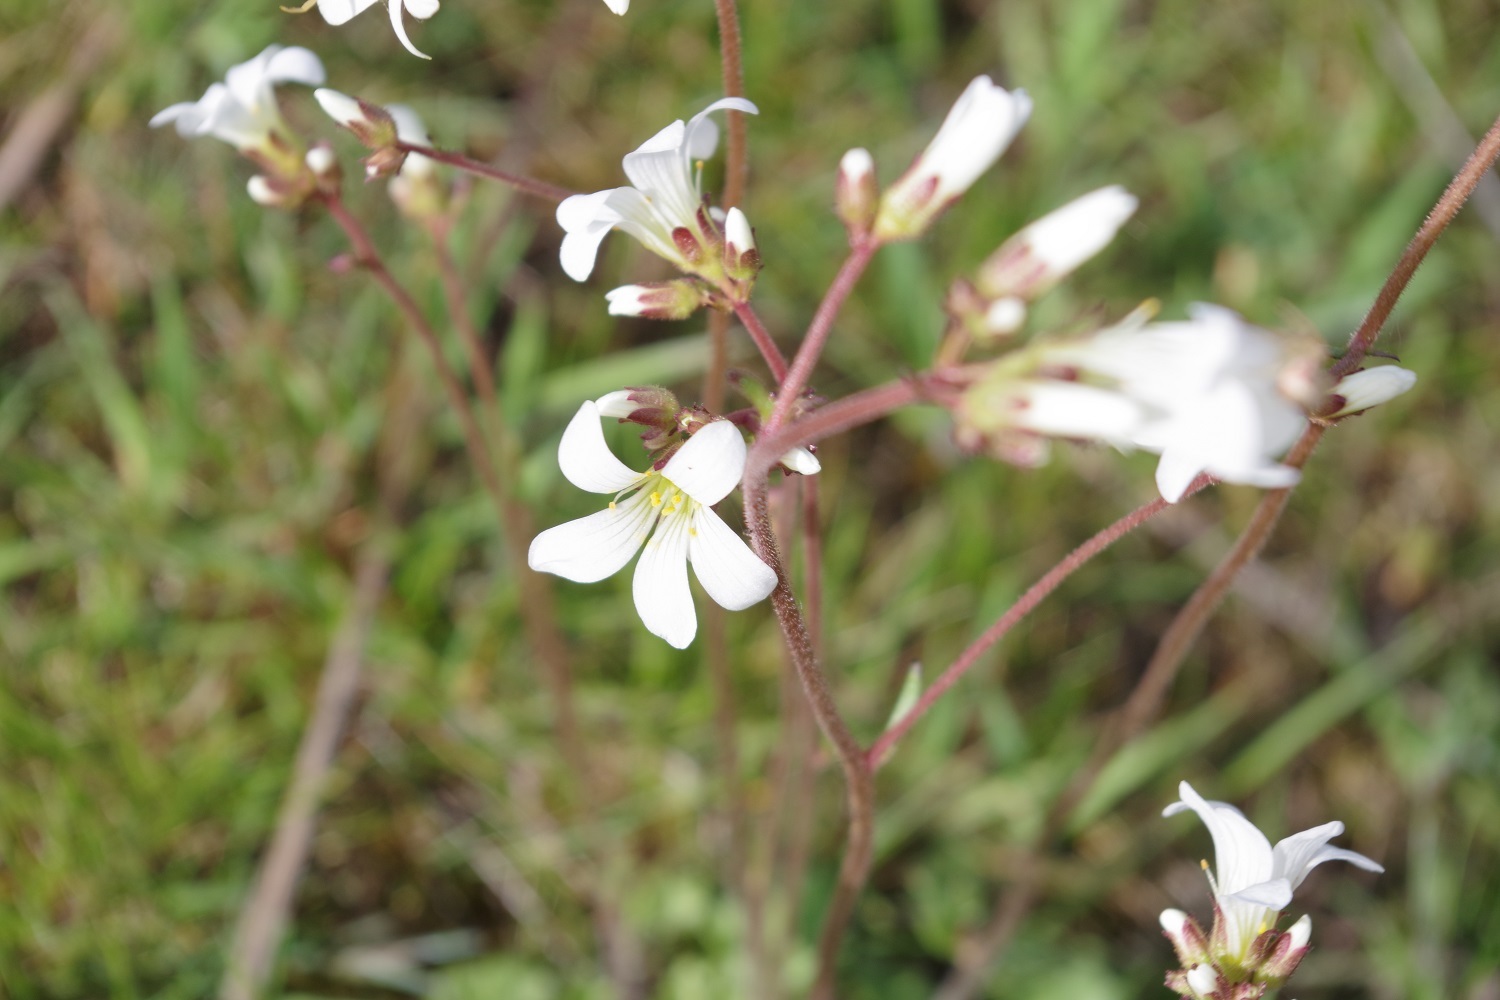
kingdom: Plantae
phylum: Tracheophyta
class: Magnoliopsida
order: Saxifragales
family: Saxifragaceae
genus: Saxifraga
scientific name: Saxifraga granulata
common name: Meadow saxifrage
